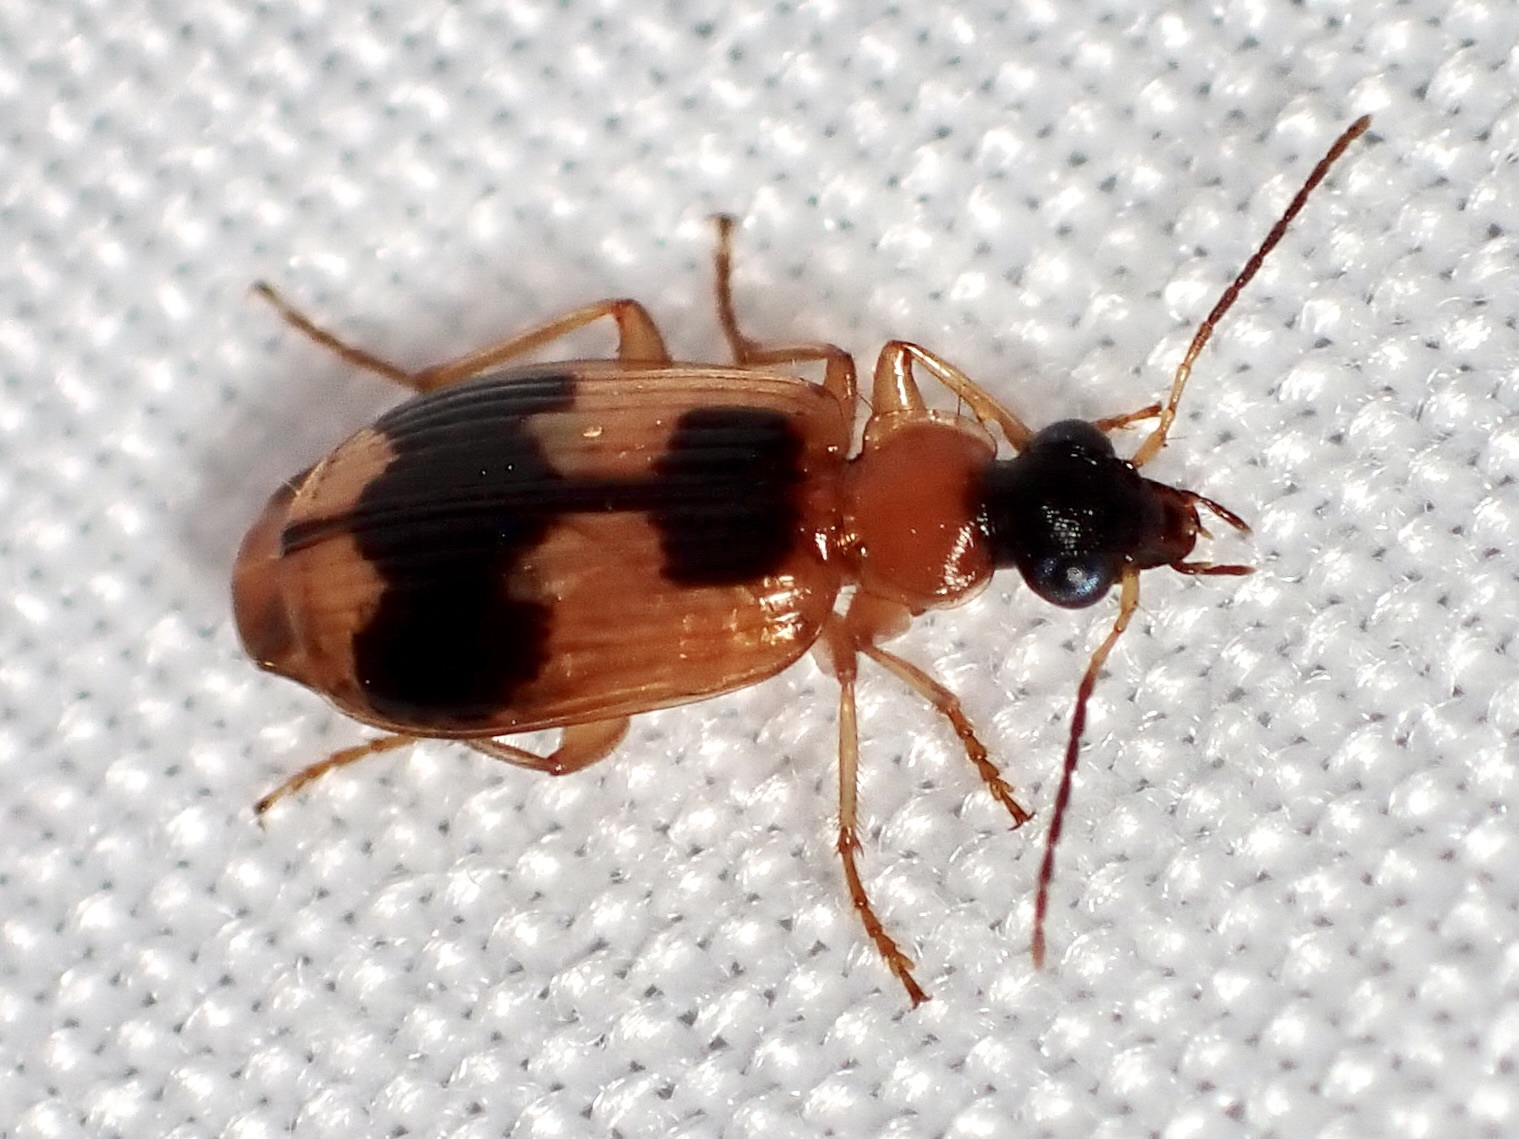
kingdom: Animalia
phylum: Arthropoda
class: Insecta
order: Coleoptera
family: Carabidae
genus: Lebia
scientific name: Lebia analis
